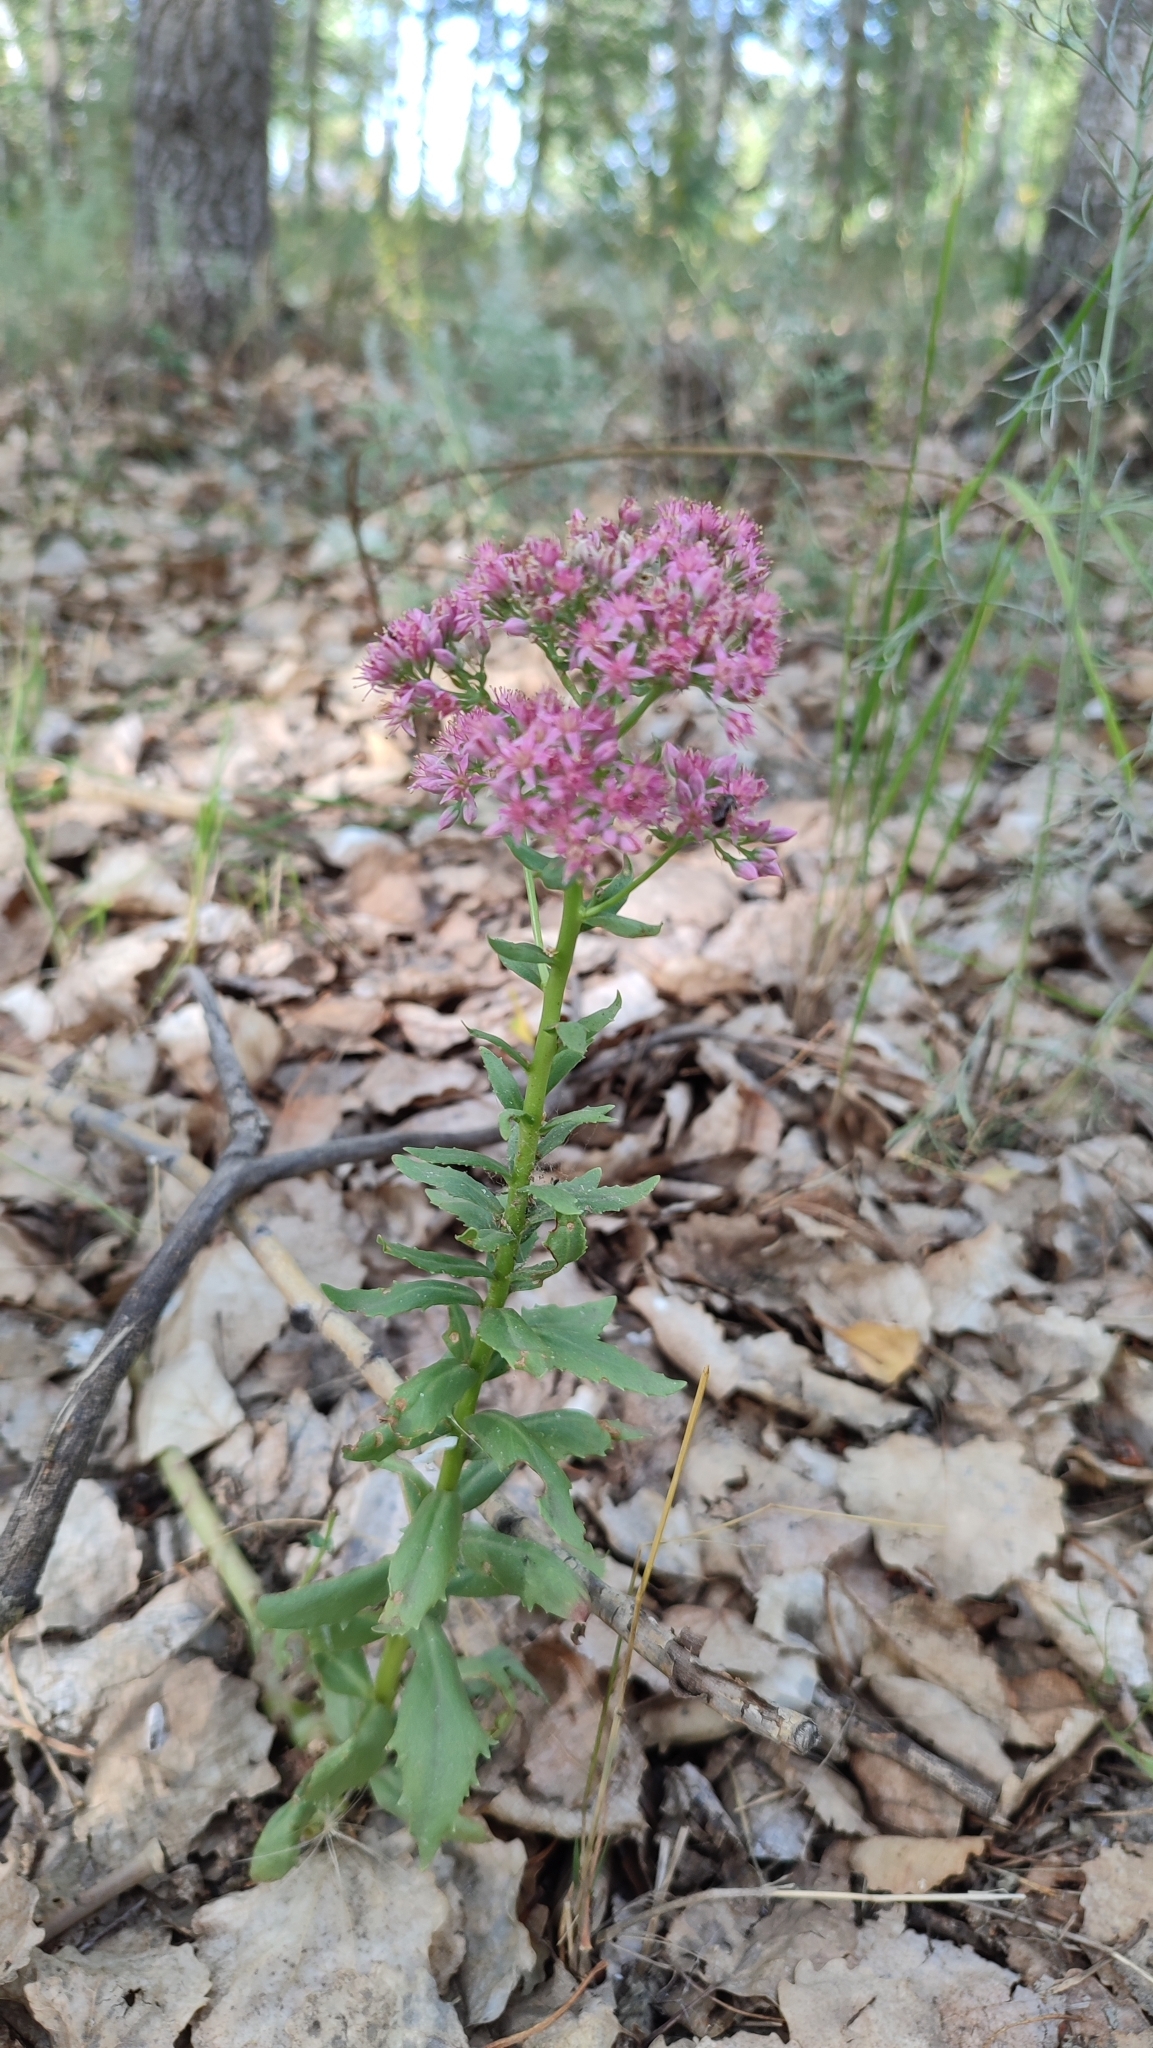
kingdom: Plantae
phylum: Tracheophyta
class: Magnoliopsida
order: Saxifragales
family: Crassulaceae
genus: Hylotelephium
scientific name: Hylotelephium telephium
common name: Live-forever
